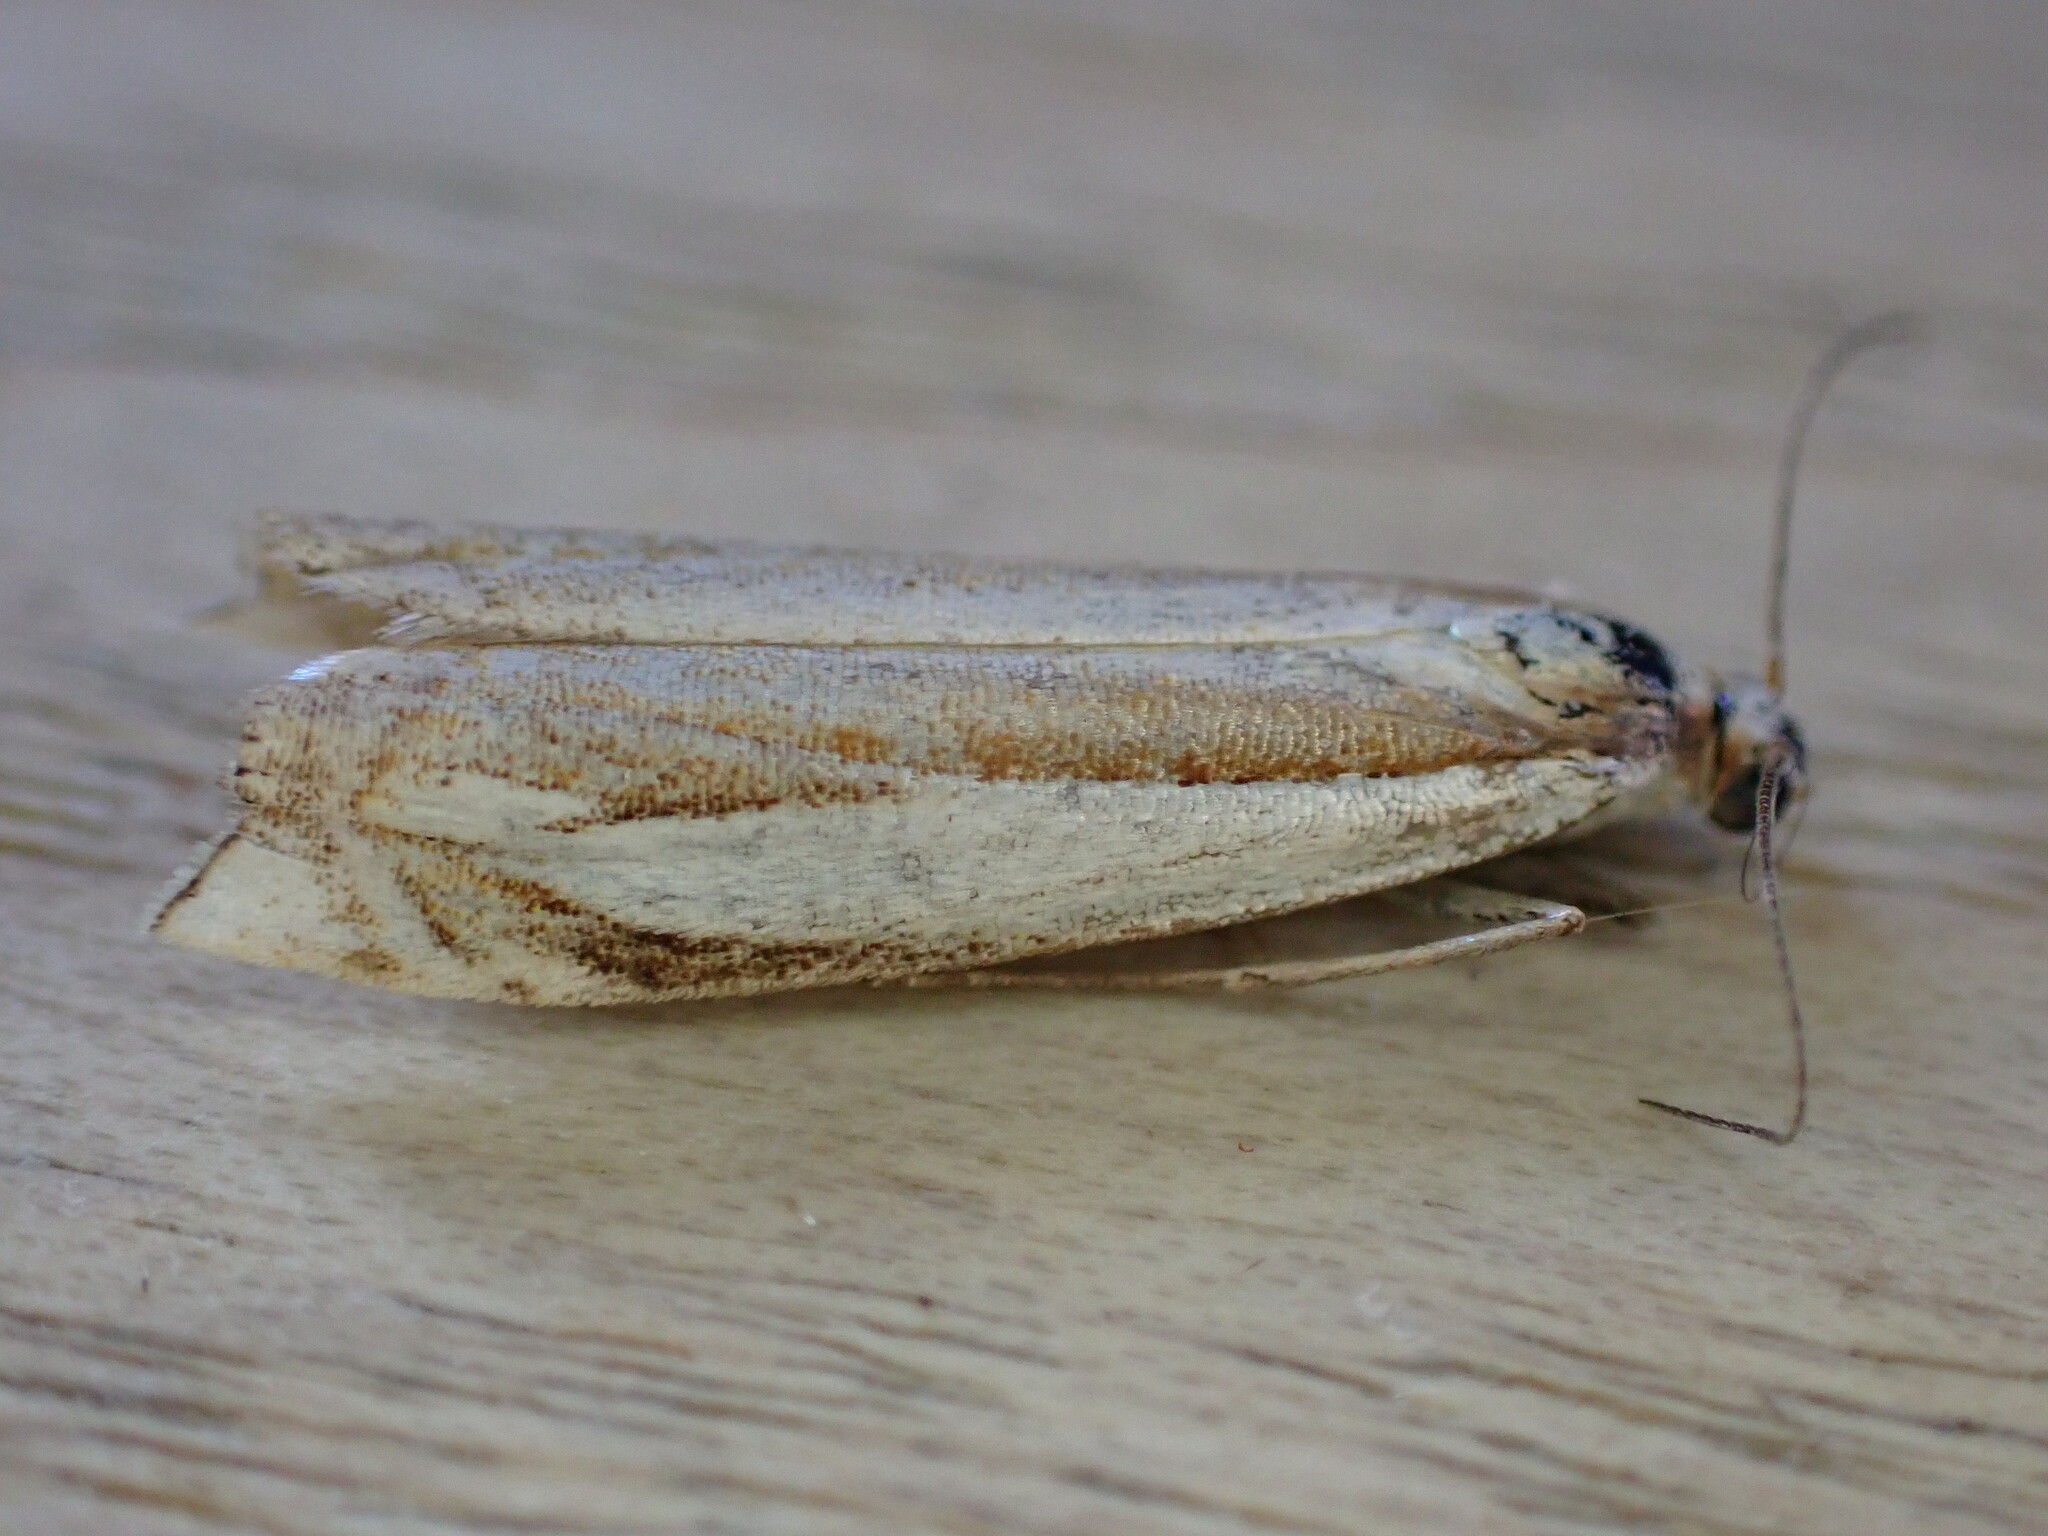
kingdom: Animalia
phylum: Arthropoda
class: Insecta
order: Lepidoptera
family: Crambidae
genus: Crambus
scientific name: Crambus pascuella
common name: Inlaid grass-veneer
